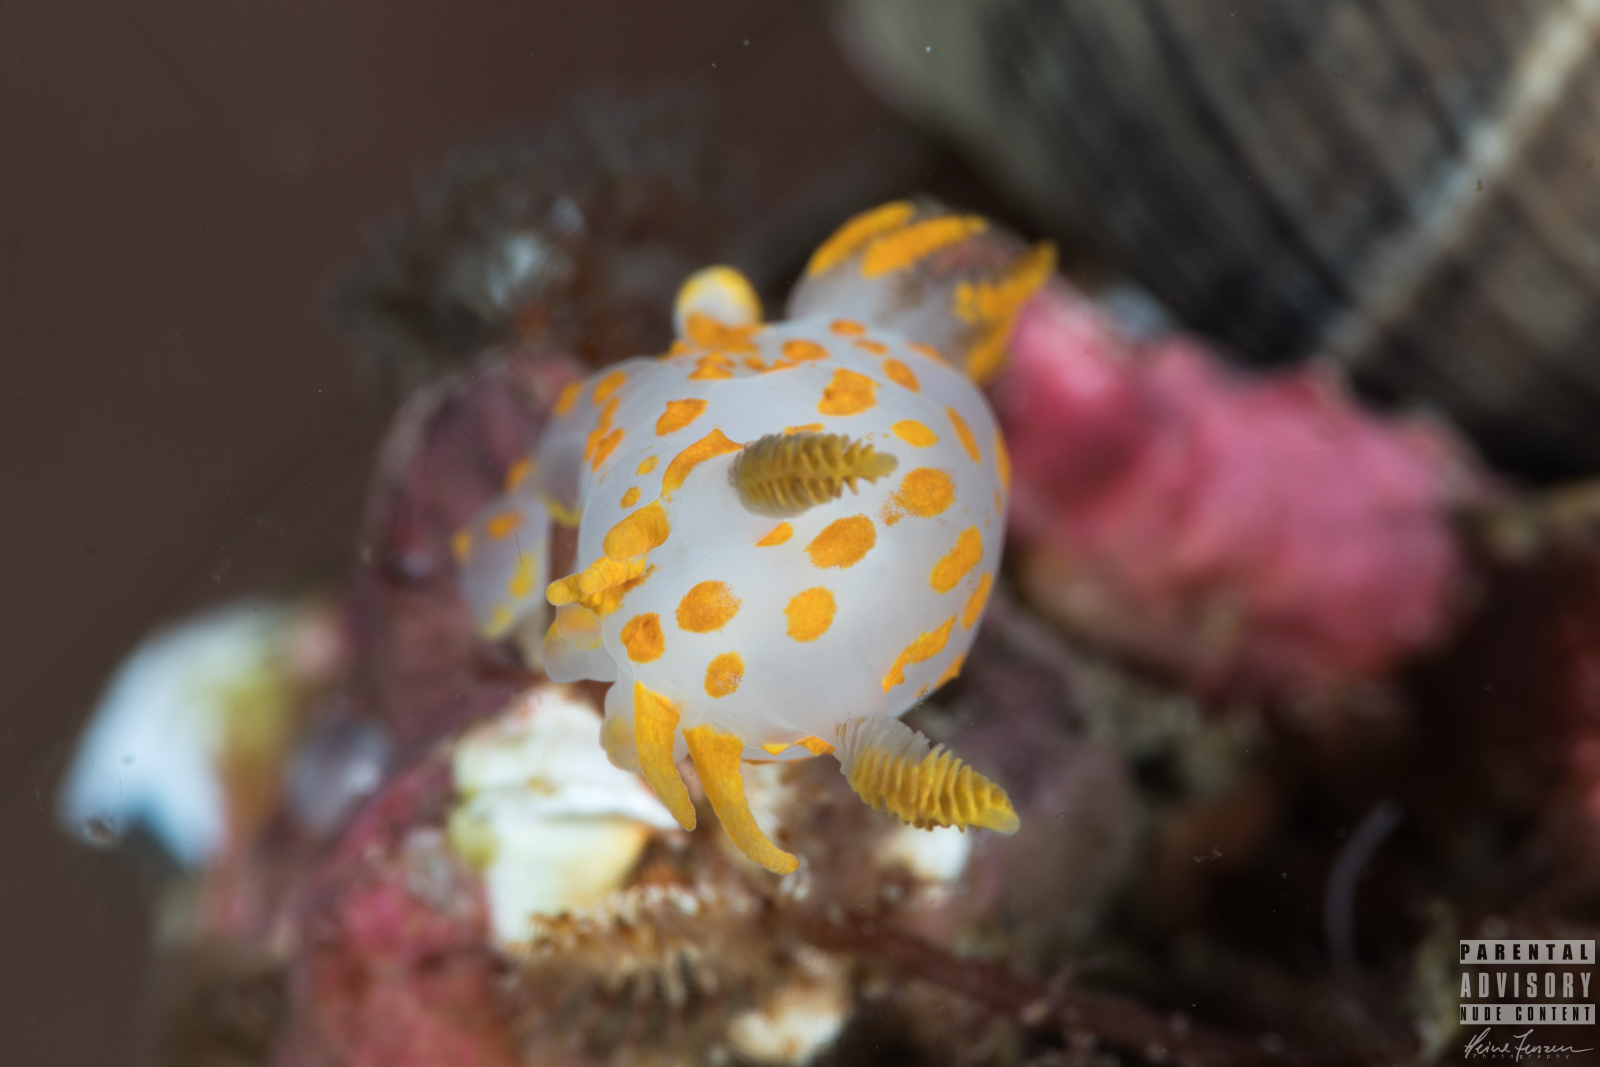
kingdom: Animalia
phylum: Mollusca
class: Gastropoda
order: Nudibranchia
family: Polyceridae
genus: Polycera
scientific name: Polycera quadrilineata
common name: Four-striped polycera
